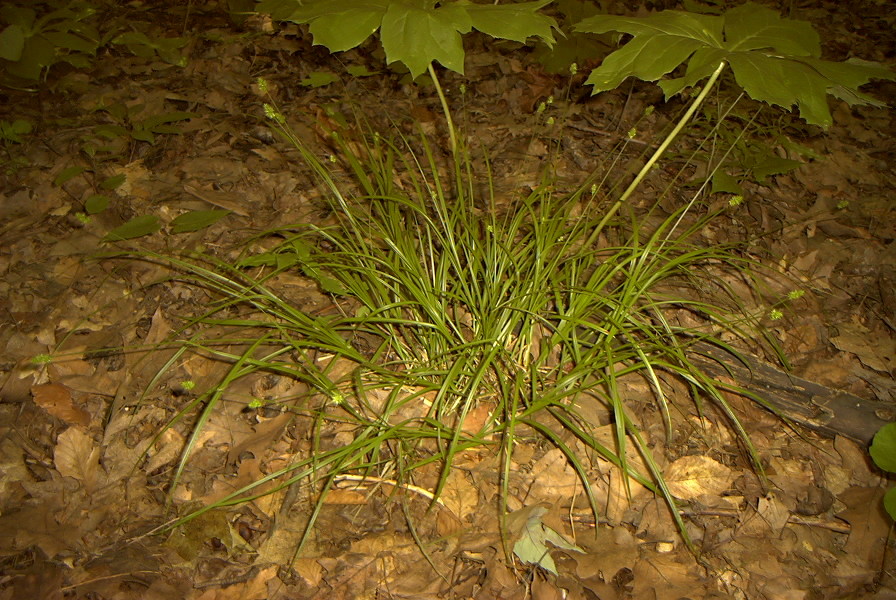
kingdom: Plantae
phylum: Tracheophyta
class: Liliopsida
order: Poales
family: Cyperaceae
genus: Carex
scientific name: Carex cephalophora
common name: Oval-headed sedge
